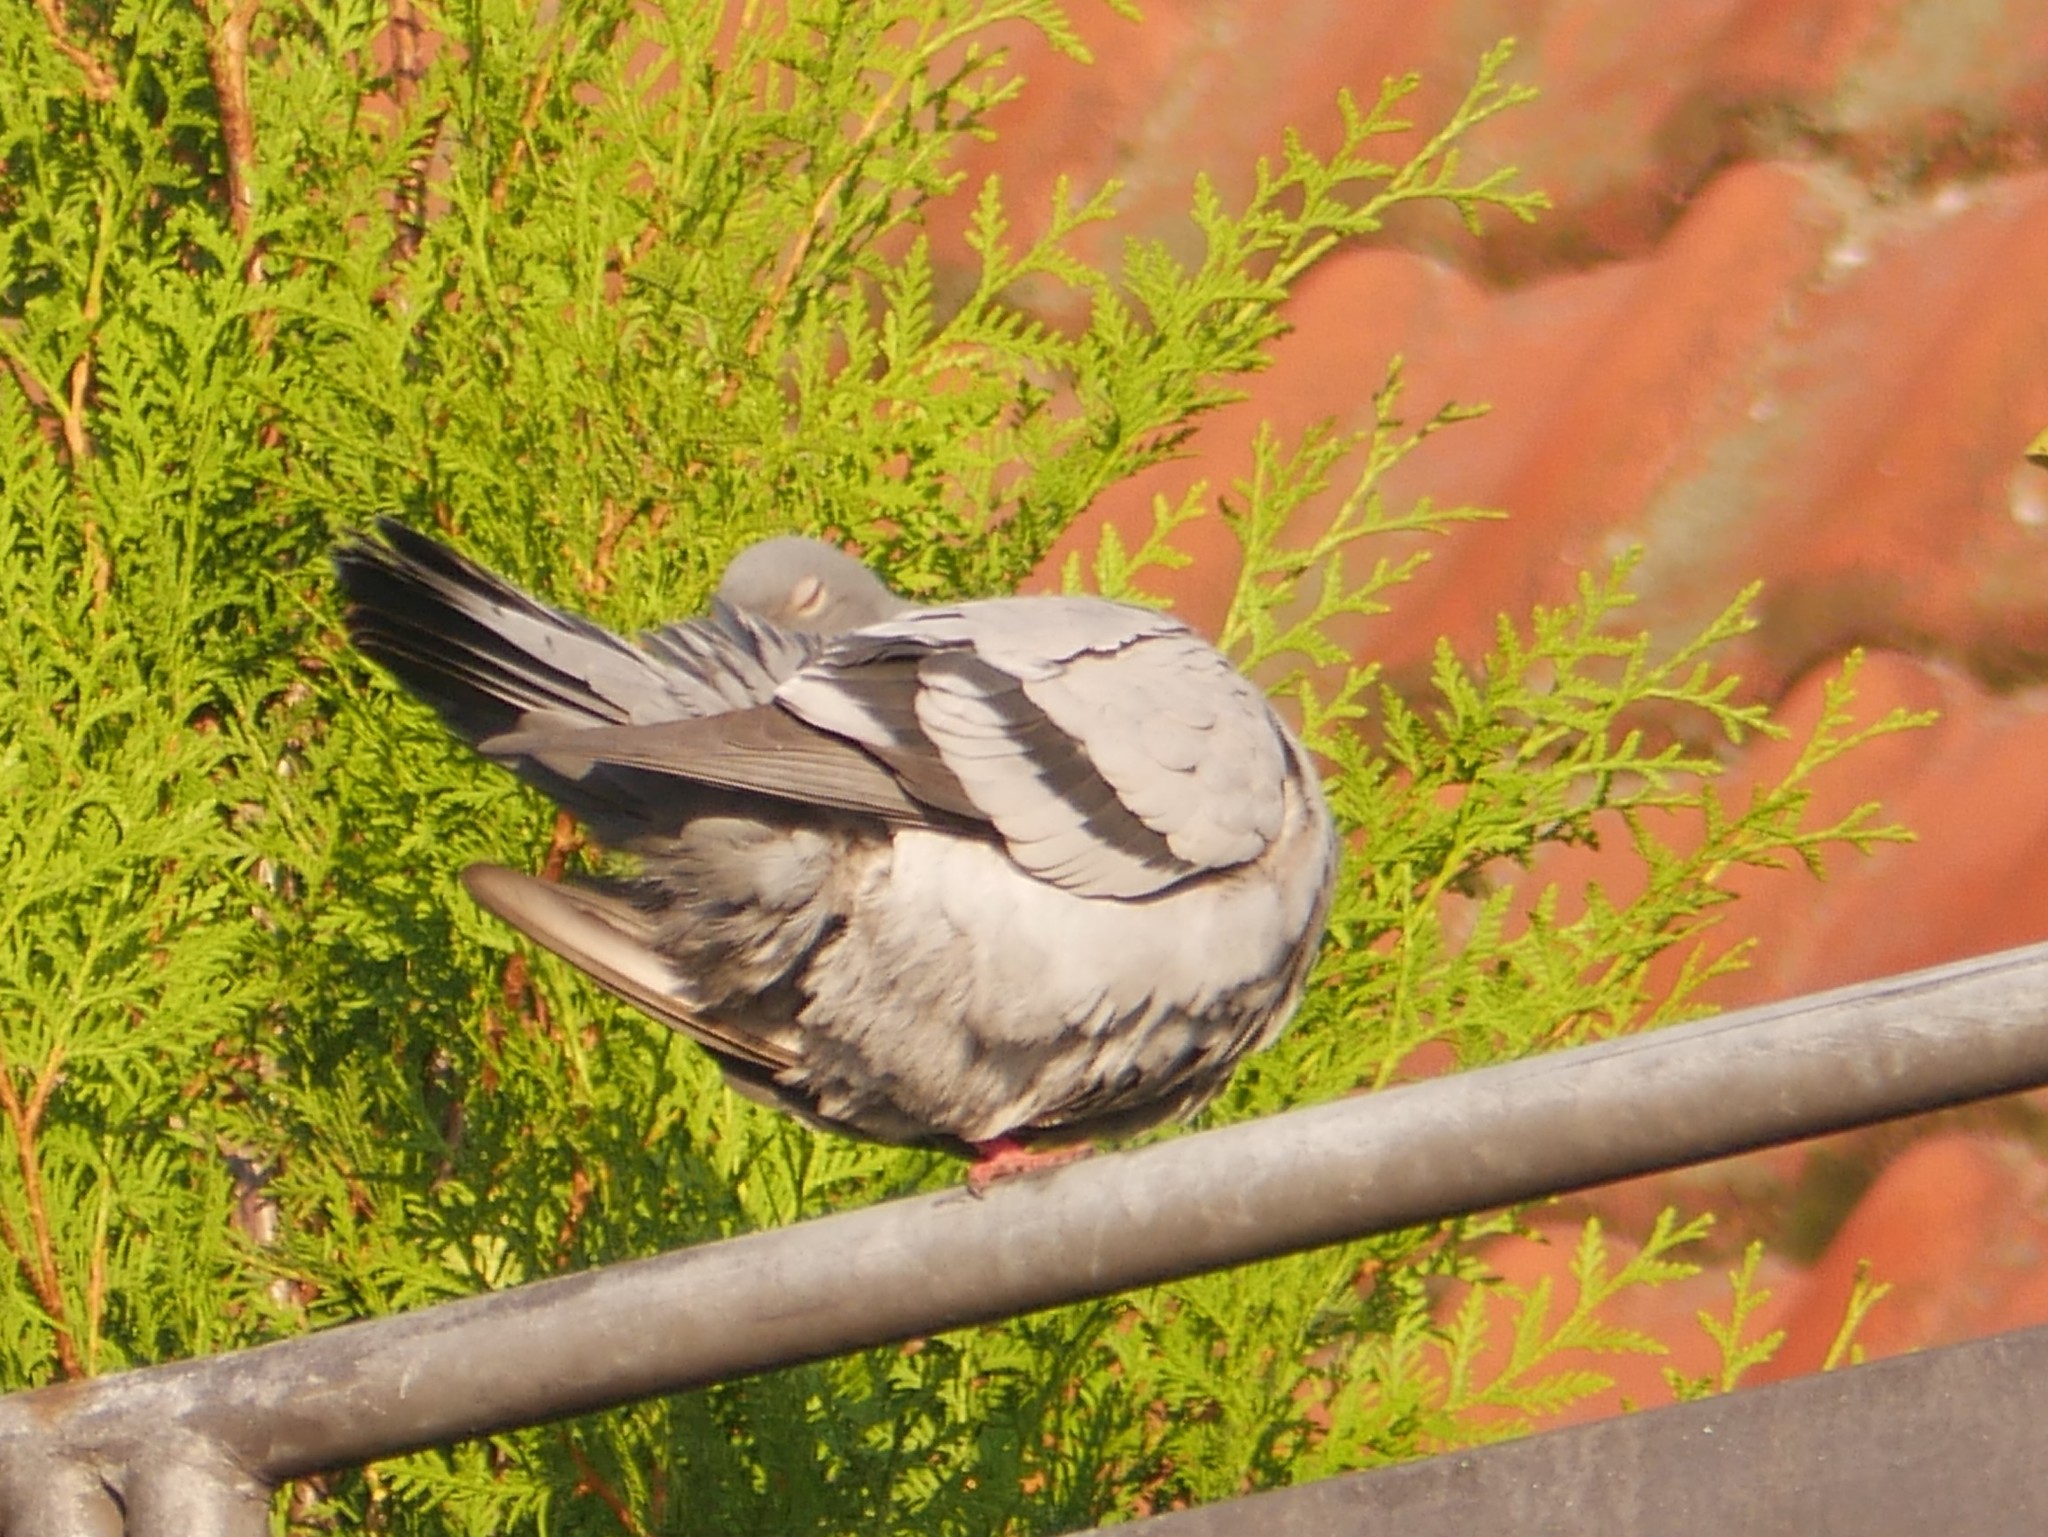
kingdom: Animalia
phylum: Chordata
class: Aves
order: Columbiformes
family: Columbidae
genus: Columba
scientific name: Columba livia
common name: Rock pigeon
